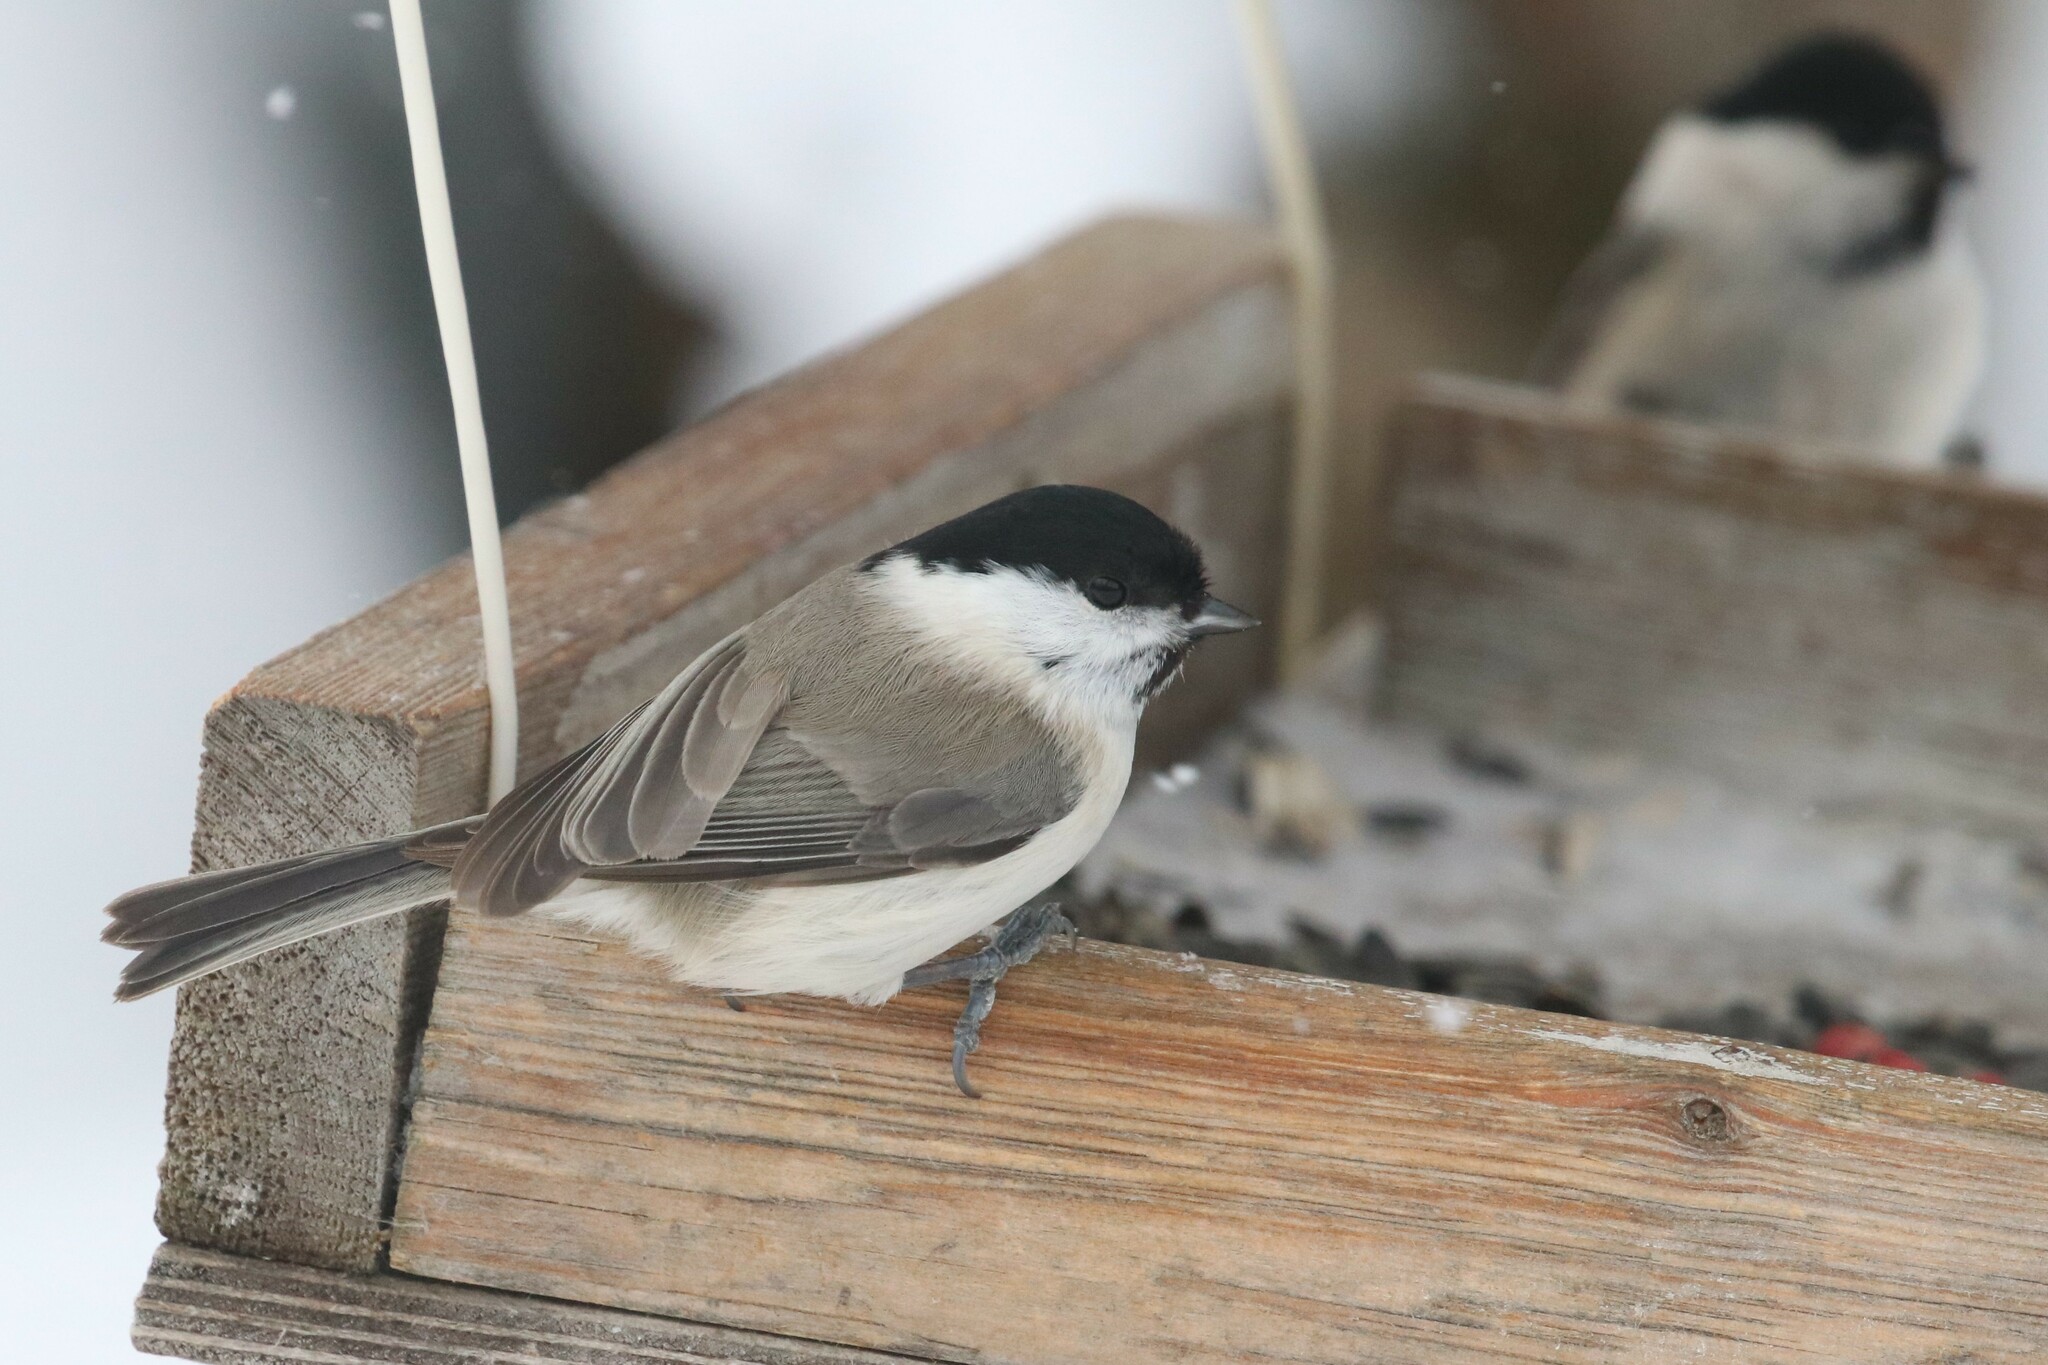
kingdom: Animalia
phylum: Chordata
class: Aves
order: Passeriformes
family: Paridae
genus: Poecile
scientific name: Poecile palustris
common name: Marsh tit
